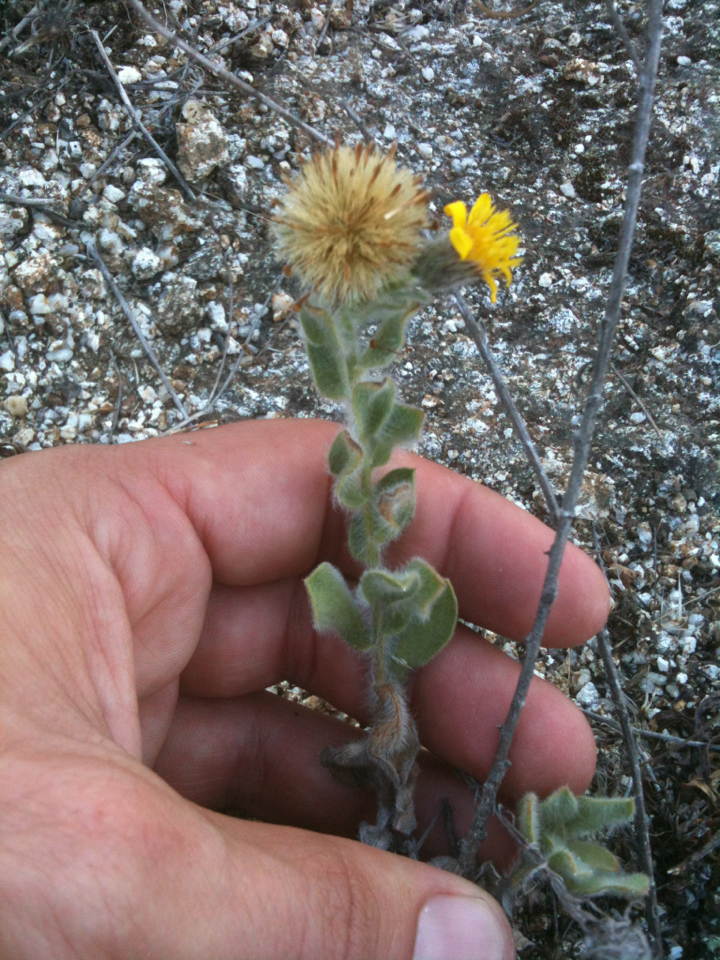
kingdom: Plantae
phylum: Tracheophyta
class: Magnoliopsida
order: Asterales
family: Asteraceae
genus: Heterotheca
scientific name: Heterotheca sessiliflora
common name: Sessile-flower golden-aster
